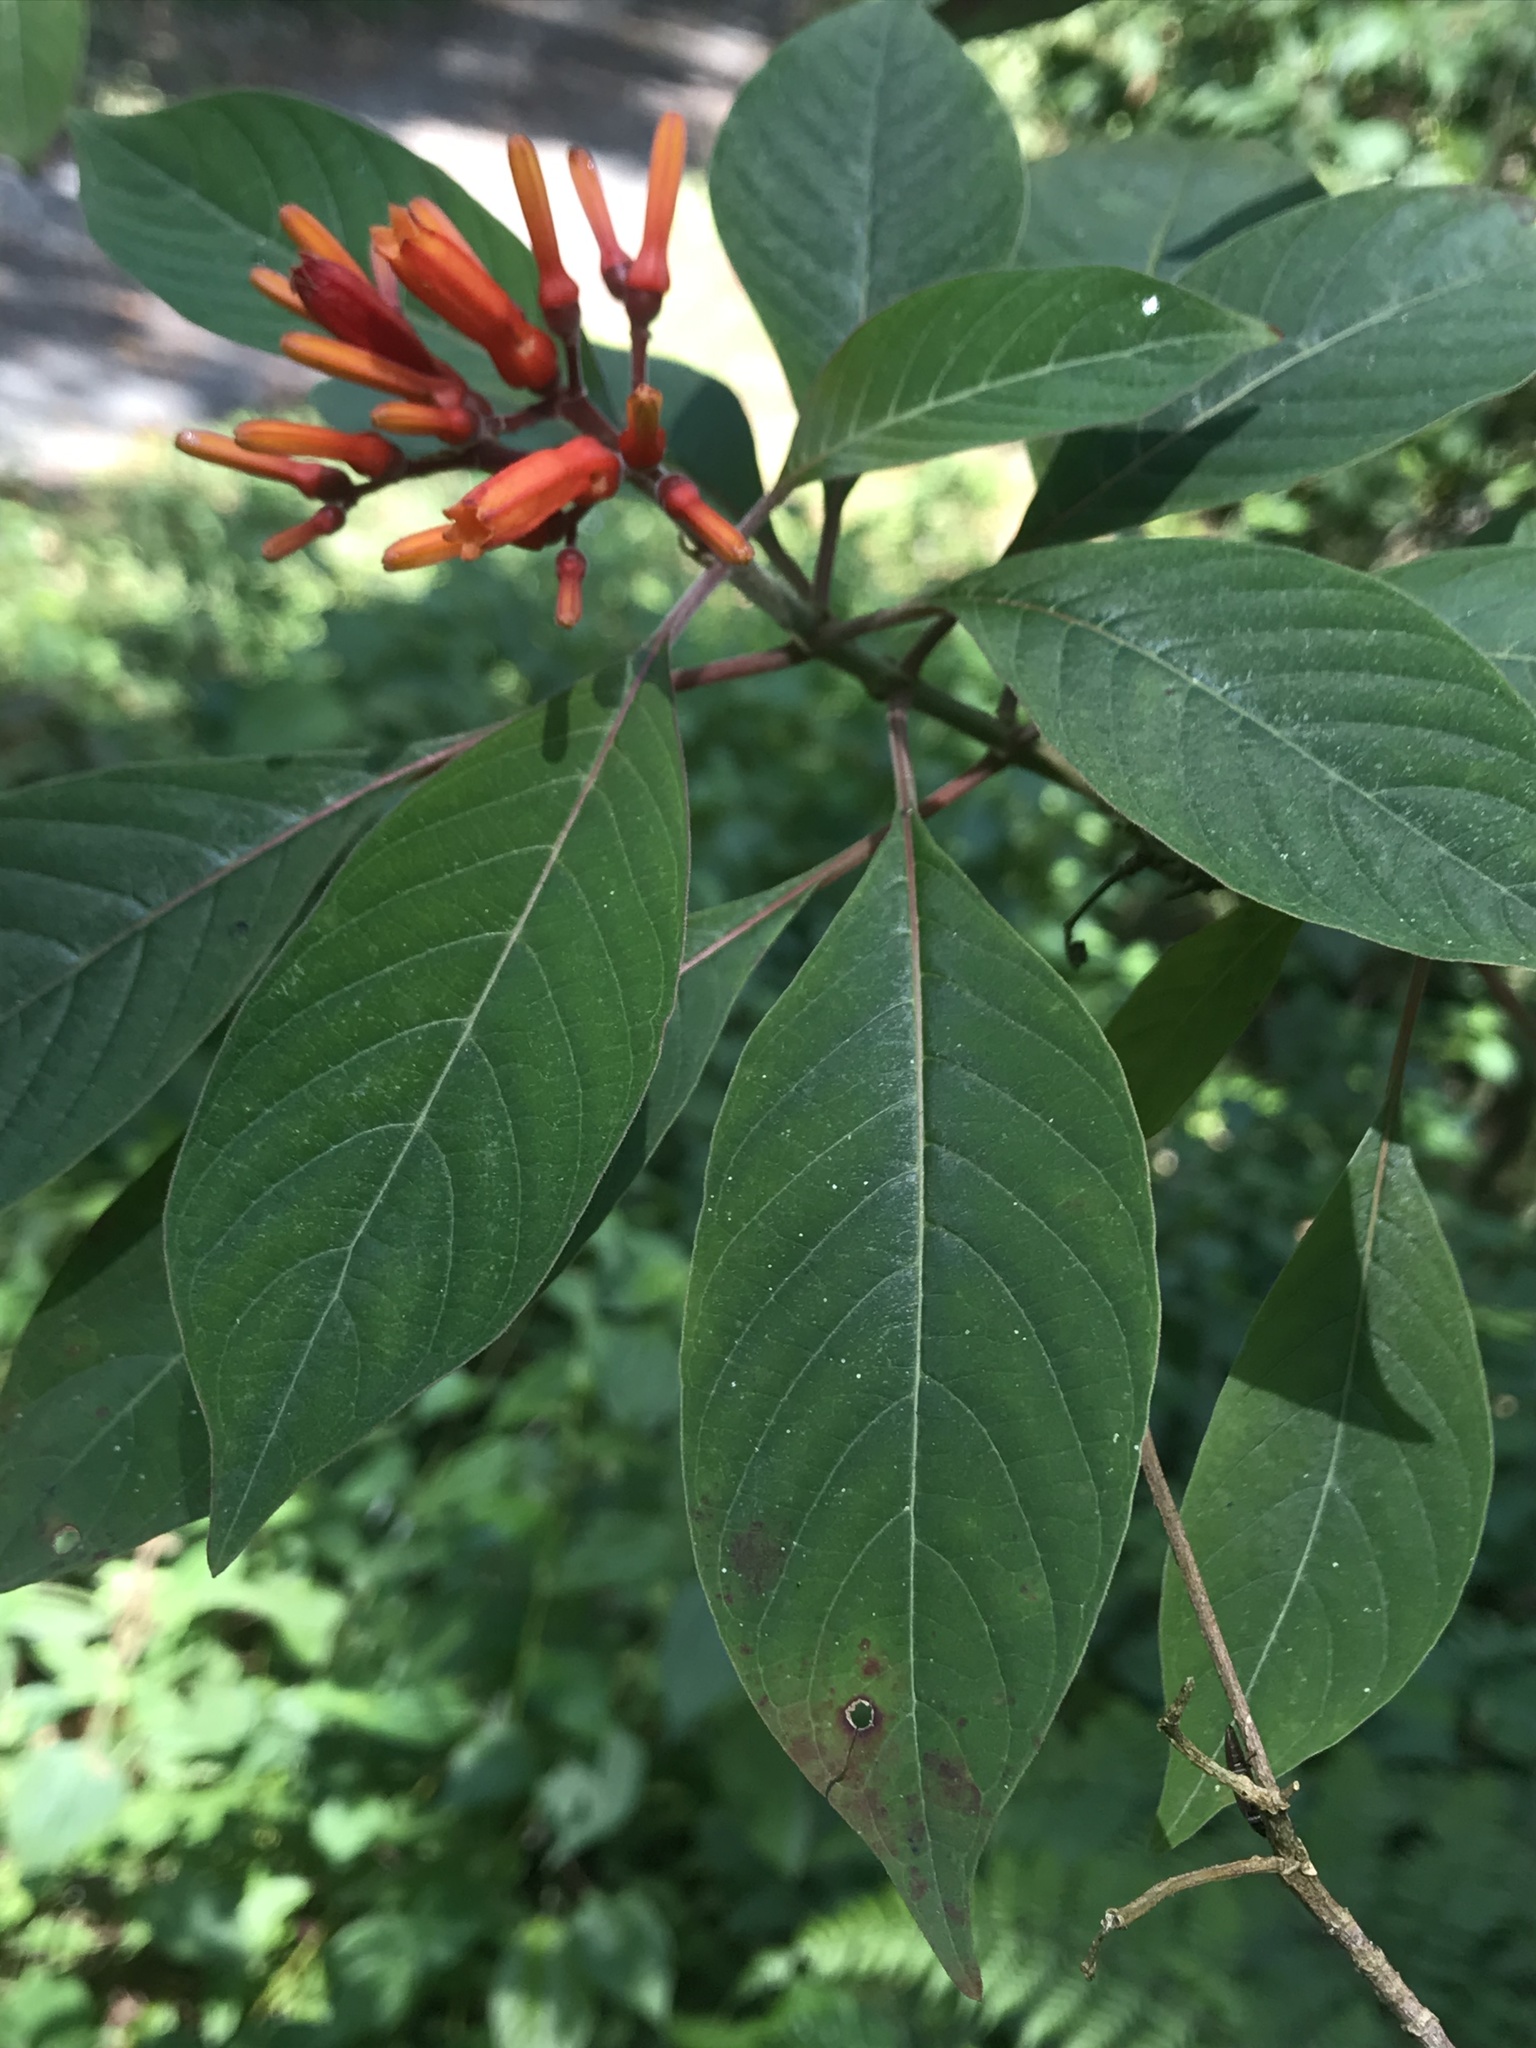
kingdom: Plantae
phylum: Tracheophyta
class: Magnoliopsida
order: Gentianales
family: Rubiaceae
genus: Hamelia
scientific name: Hamelia patens
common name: Redhead
